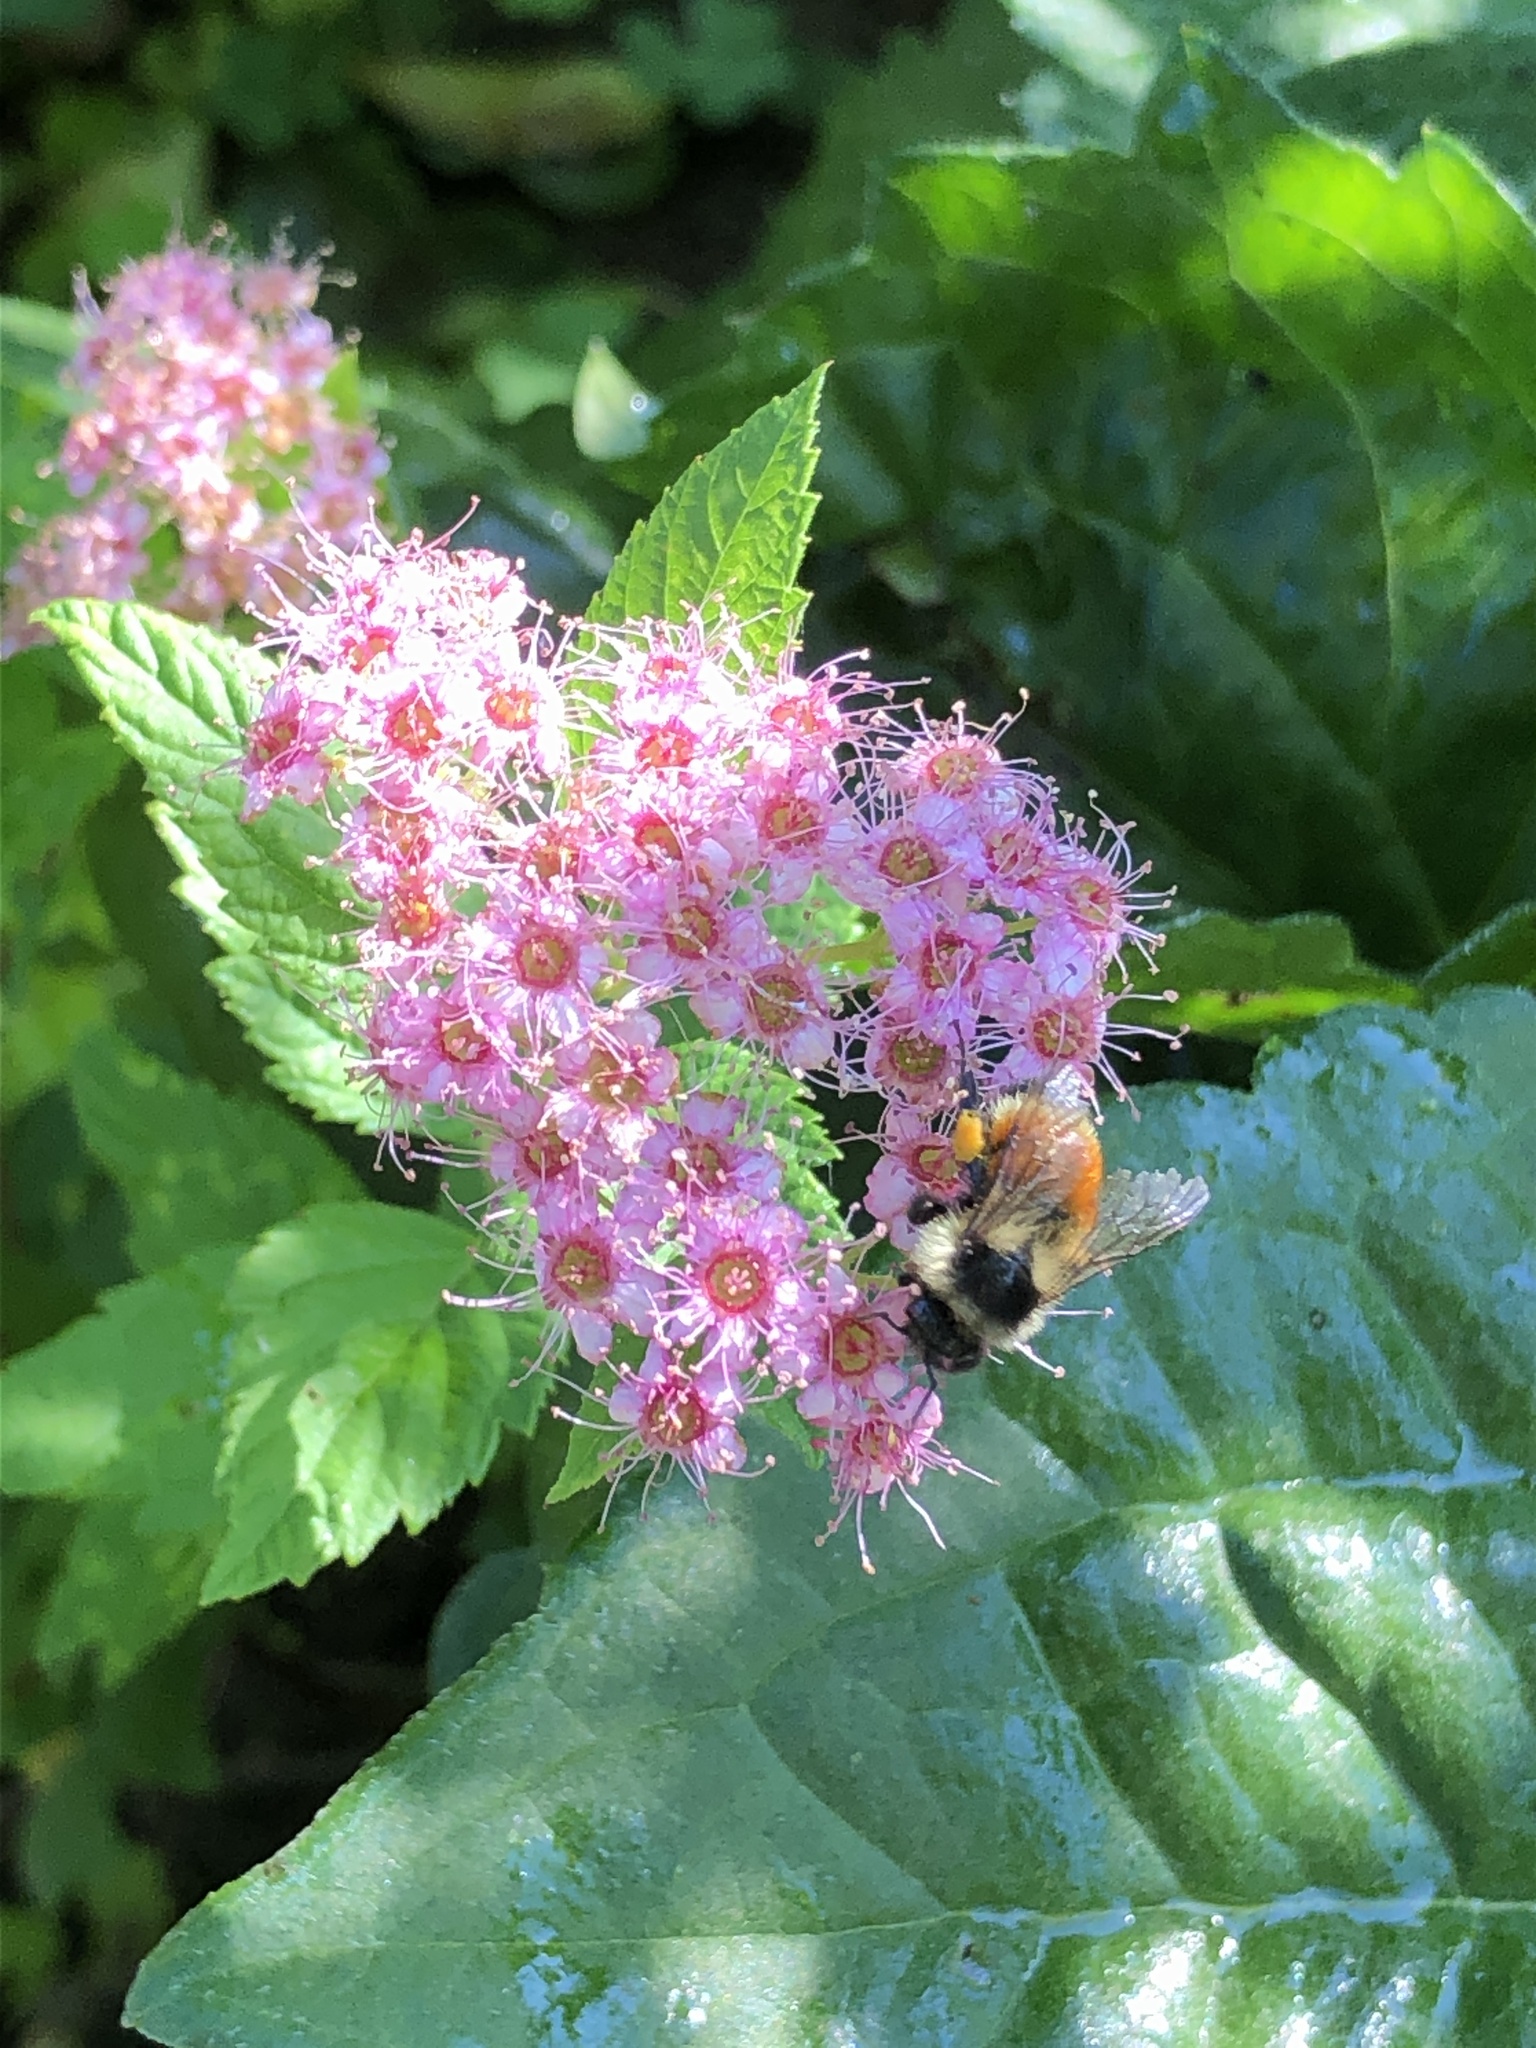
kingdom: Animalia
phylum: Arthropoda
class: Insecta
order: Hymenoptera
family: Apidae
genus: Bombus
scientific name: Bombus ternarius
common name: Tri-colored bumble bee
